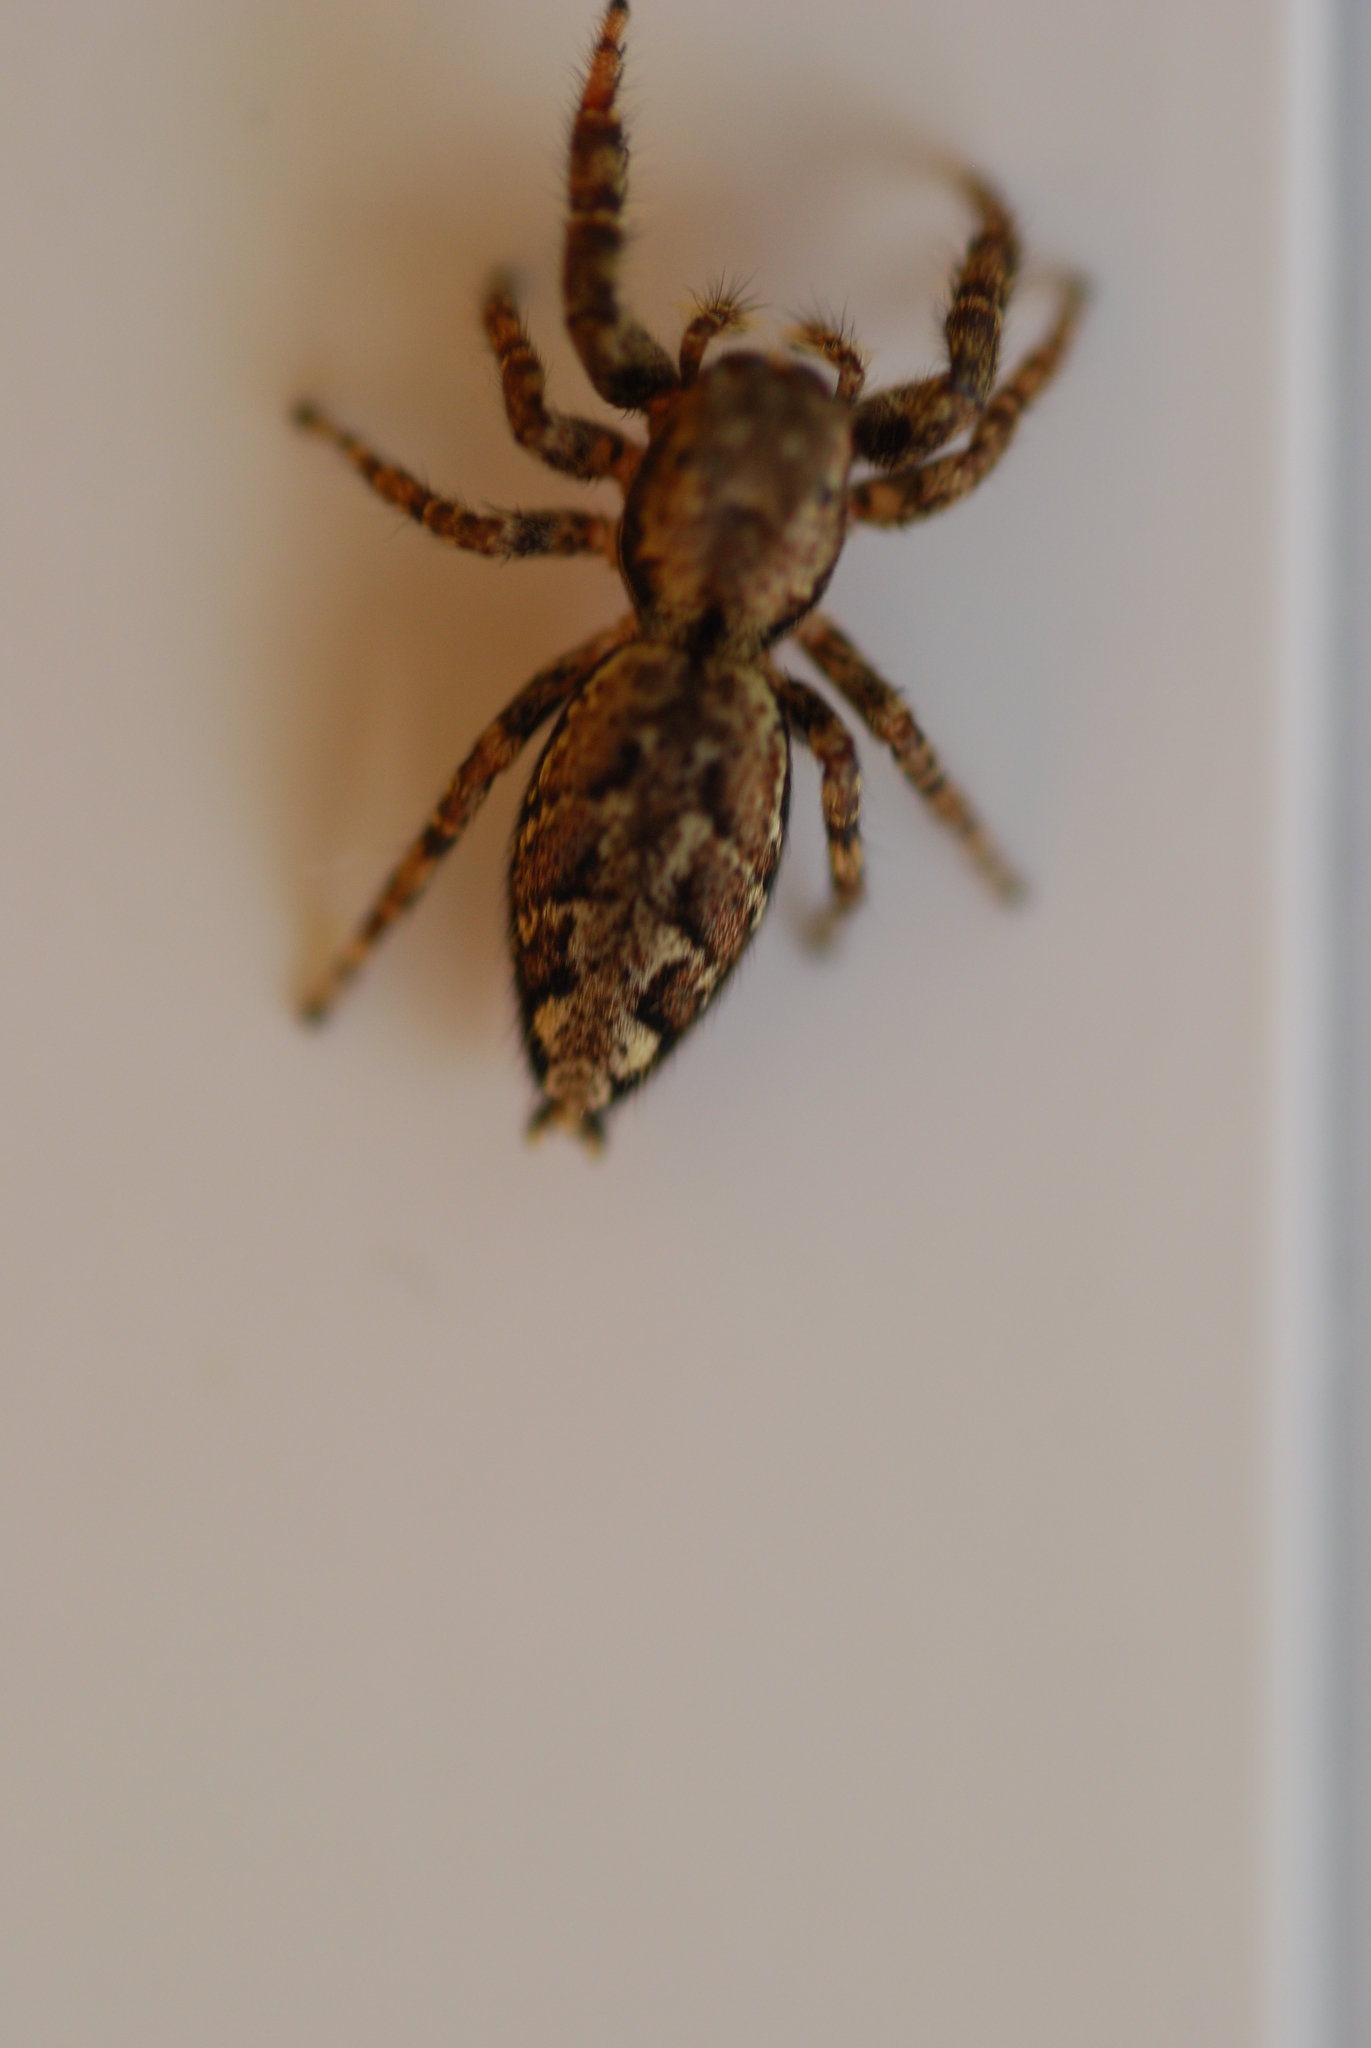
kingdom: Animalia
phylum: Arthropoda
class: Arachnida
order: Araneae
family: Salticidae
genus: Marpissa
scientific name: Marpissa muscosa
